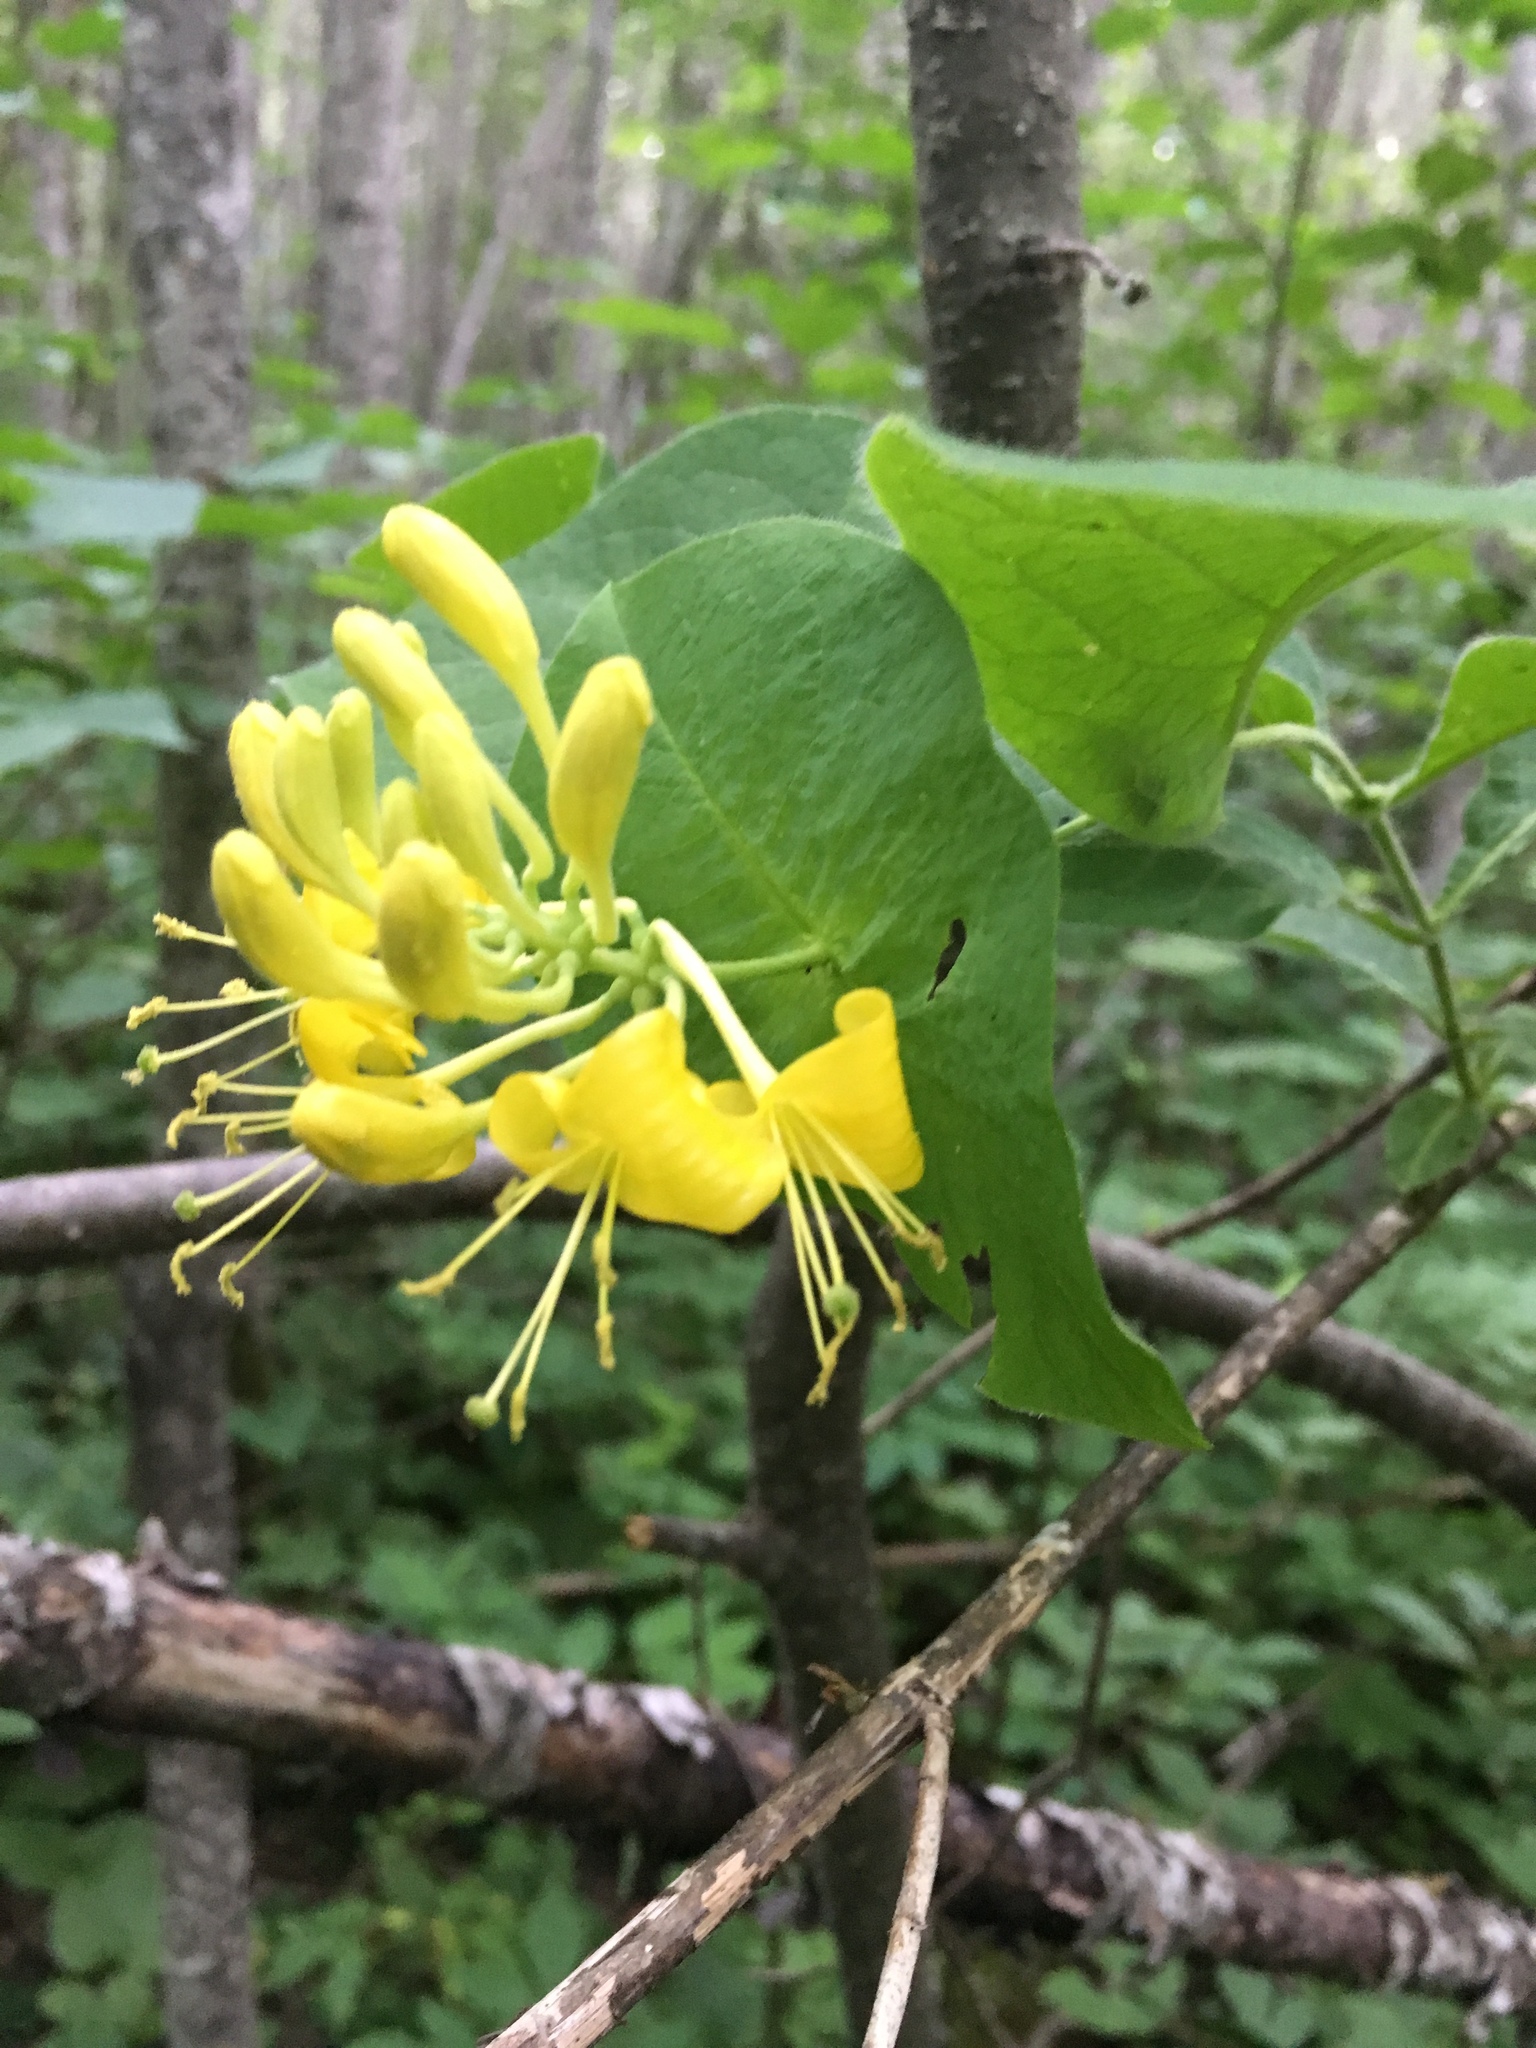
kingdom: Plantae
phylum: Tracheophyta
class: Magnoliopsida
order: Dipsacales
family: Caprifoliaceae
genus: Lonicera
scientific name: Lonicera hirsuta
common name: Hairy honeysuckle
